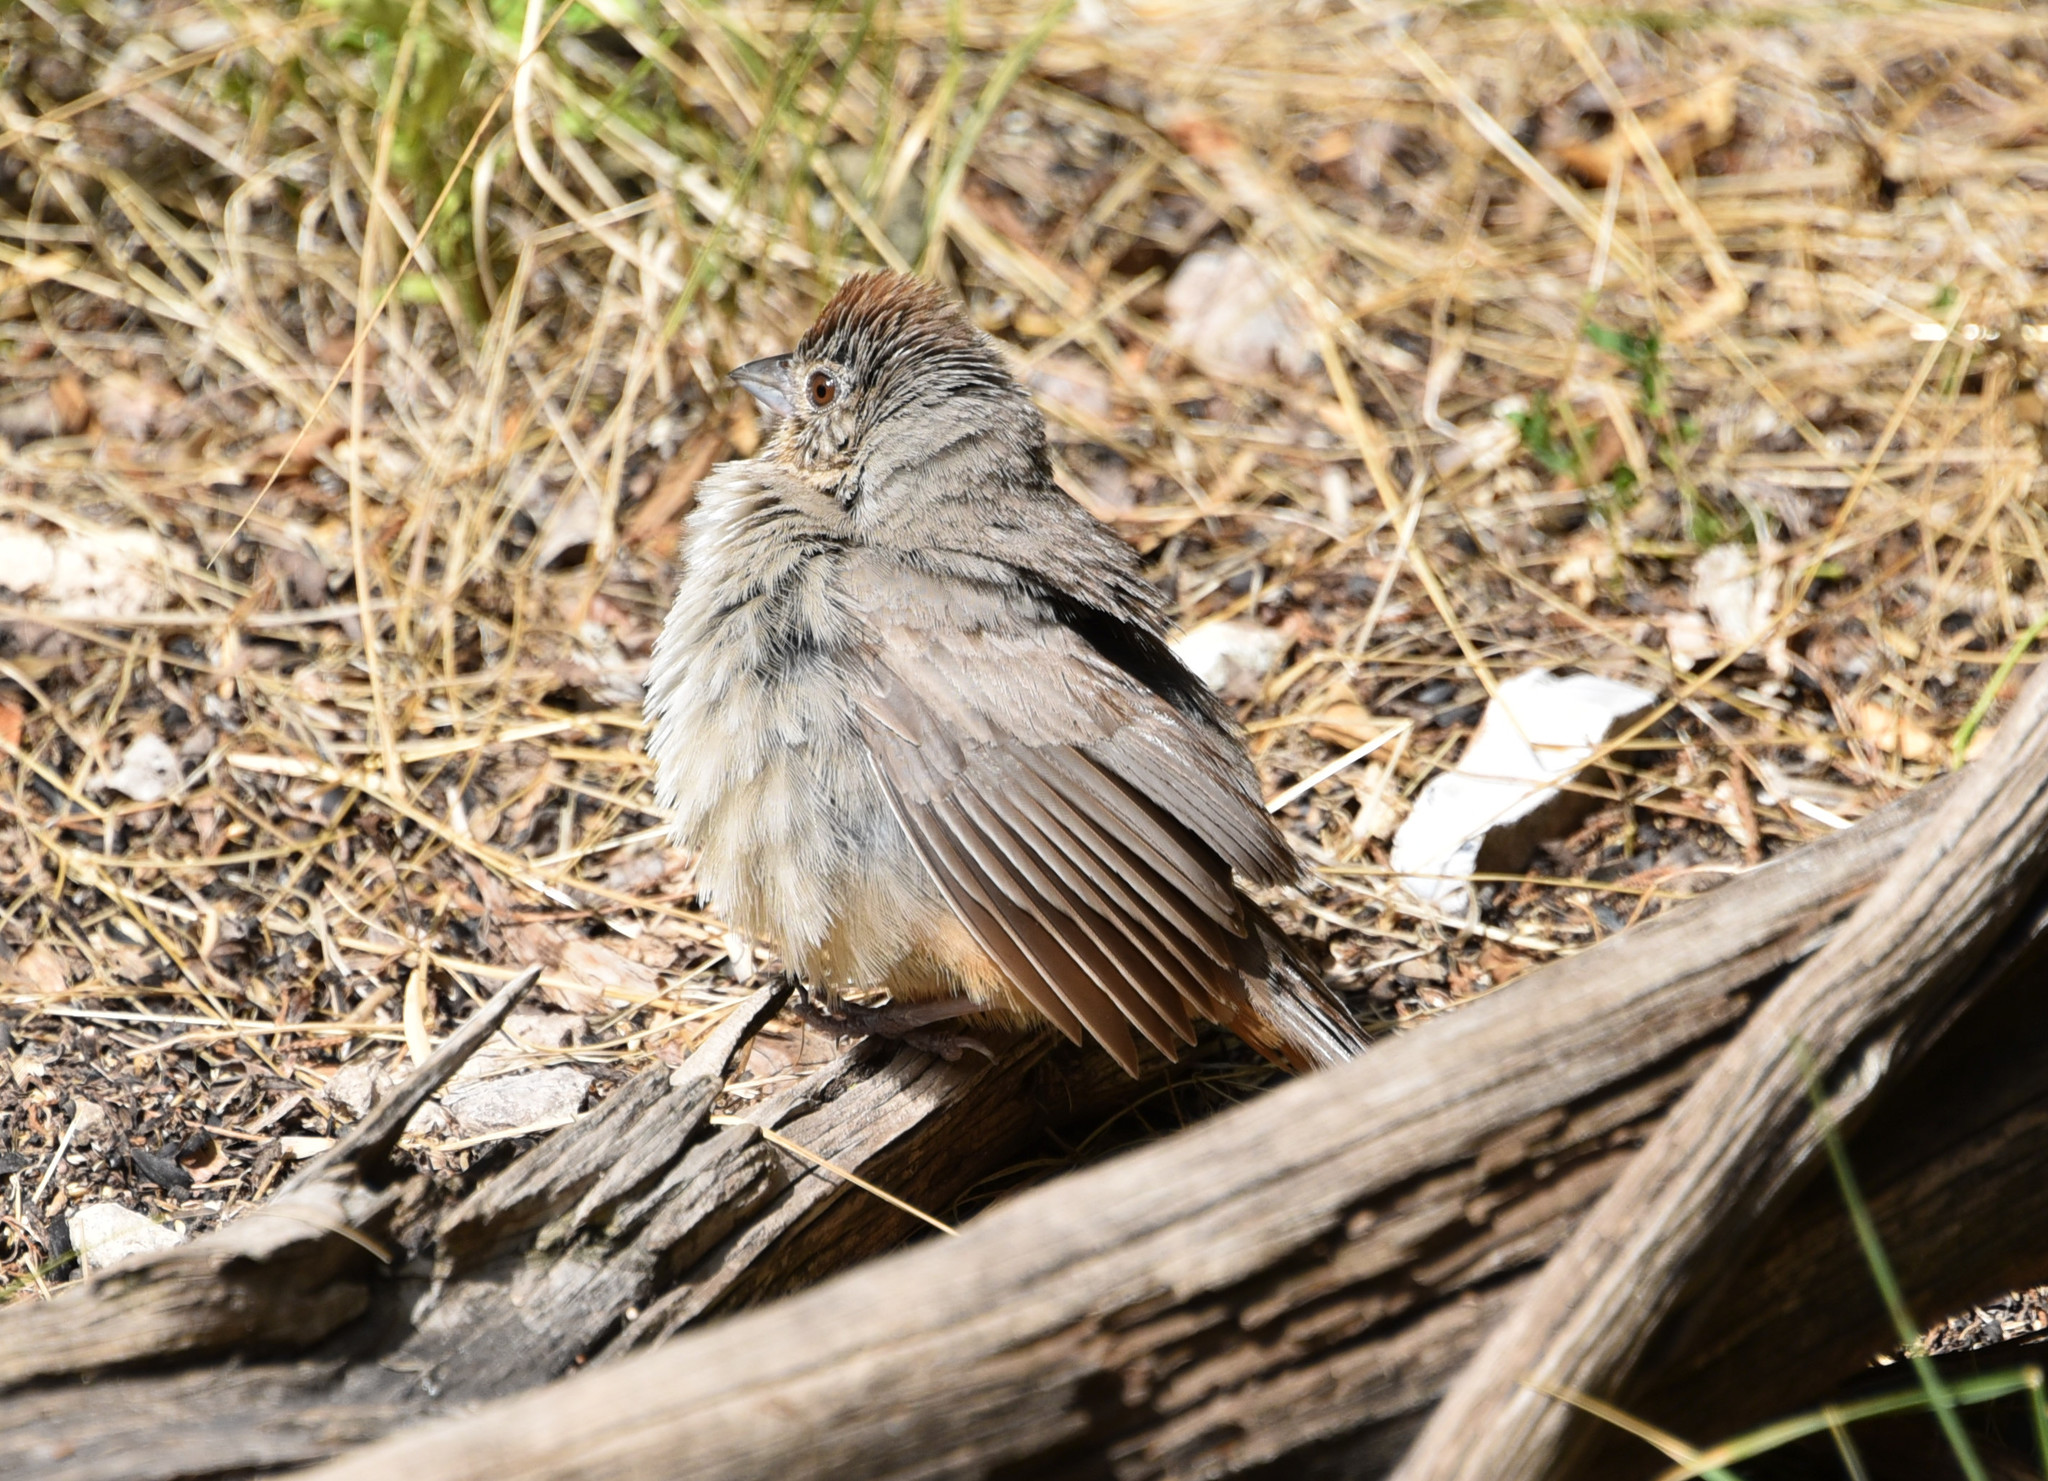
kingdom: Animalia
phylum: Chordata
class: Aves
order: Passeriformes
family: Passerellidae
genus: Melozone
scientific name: Melozone fusca
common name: Canyon towhee
